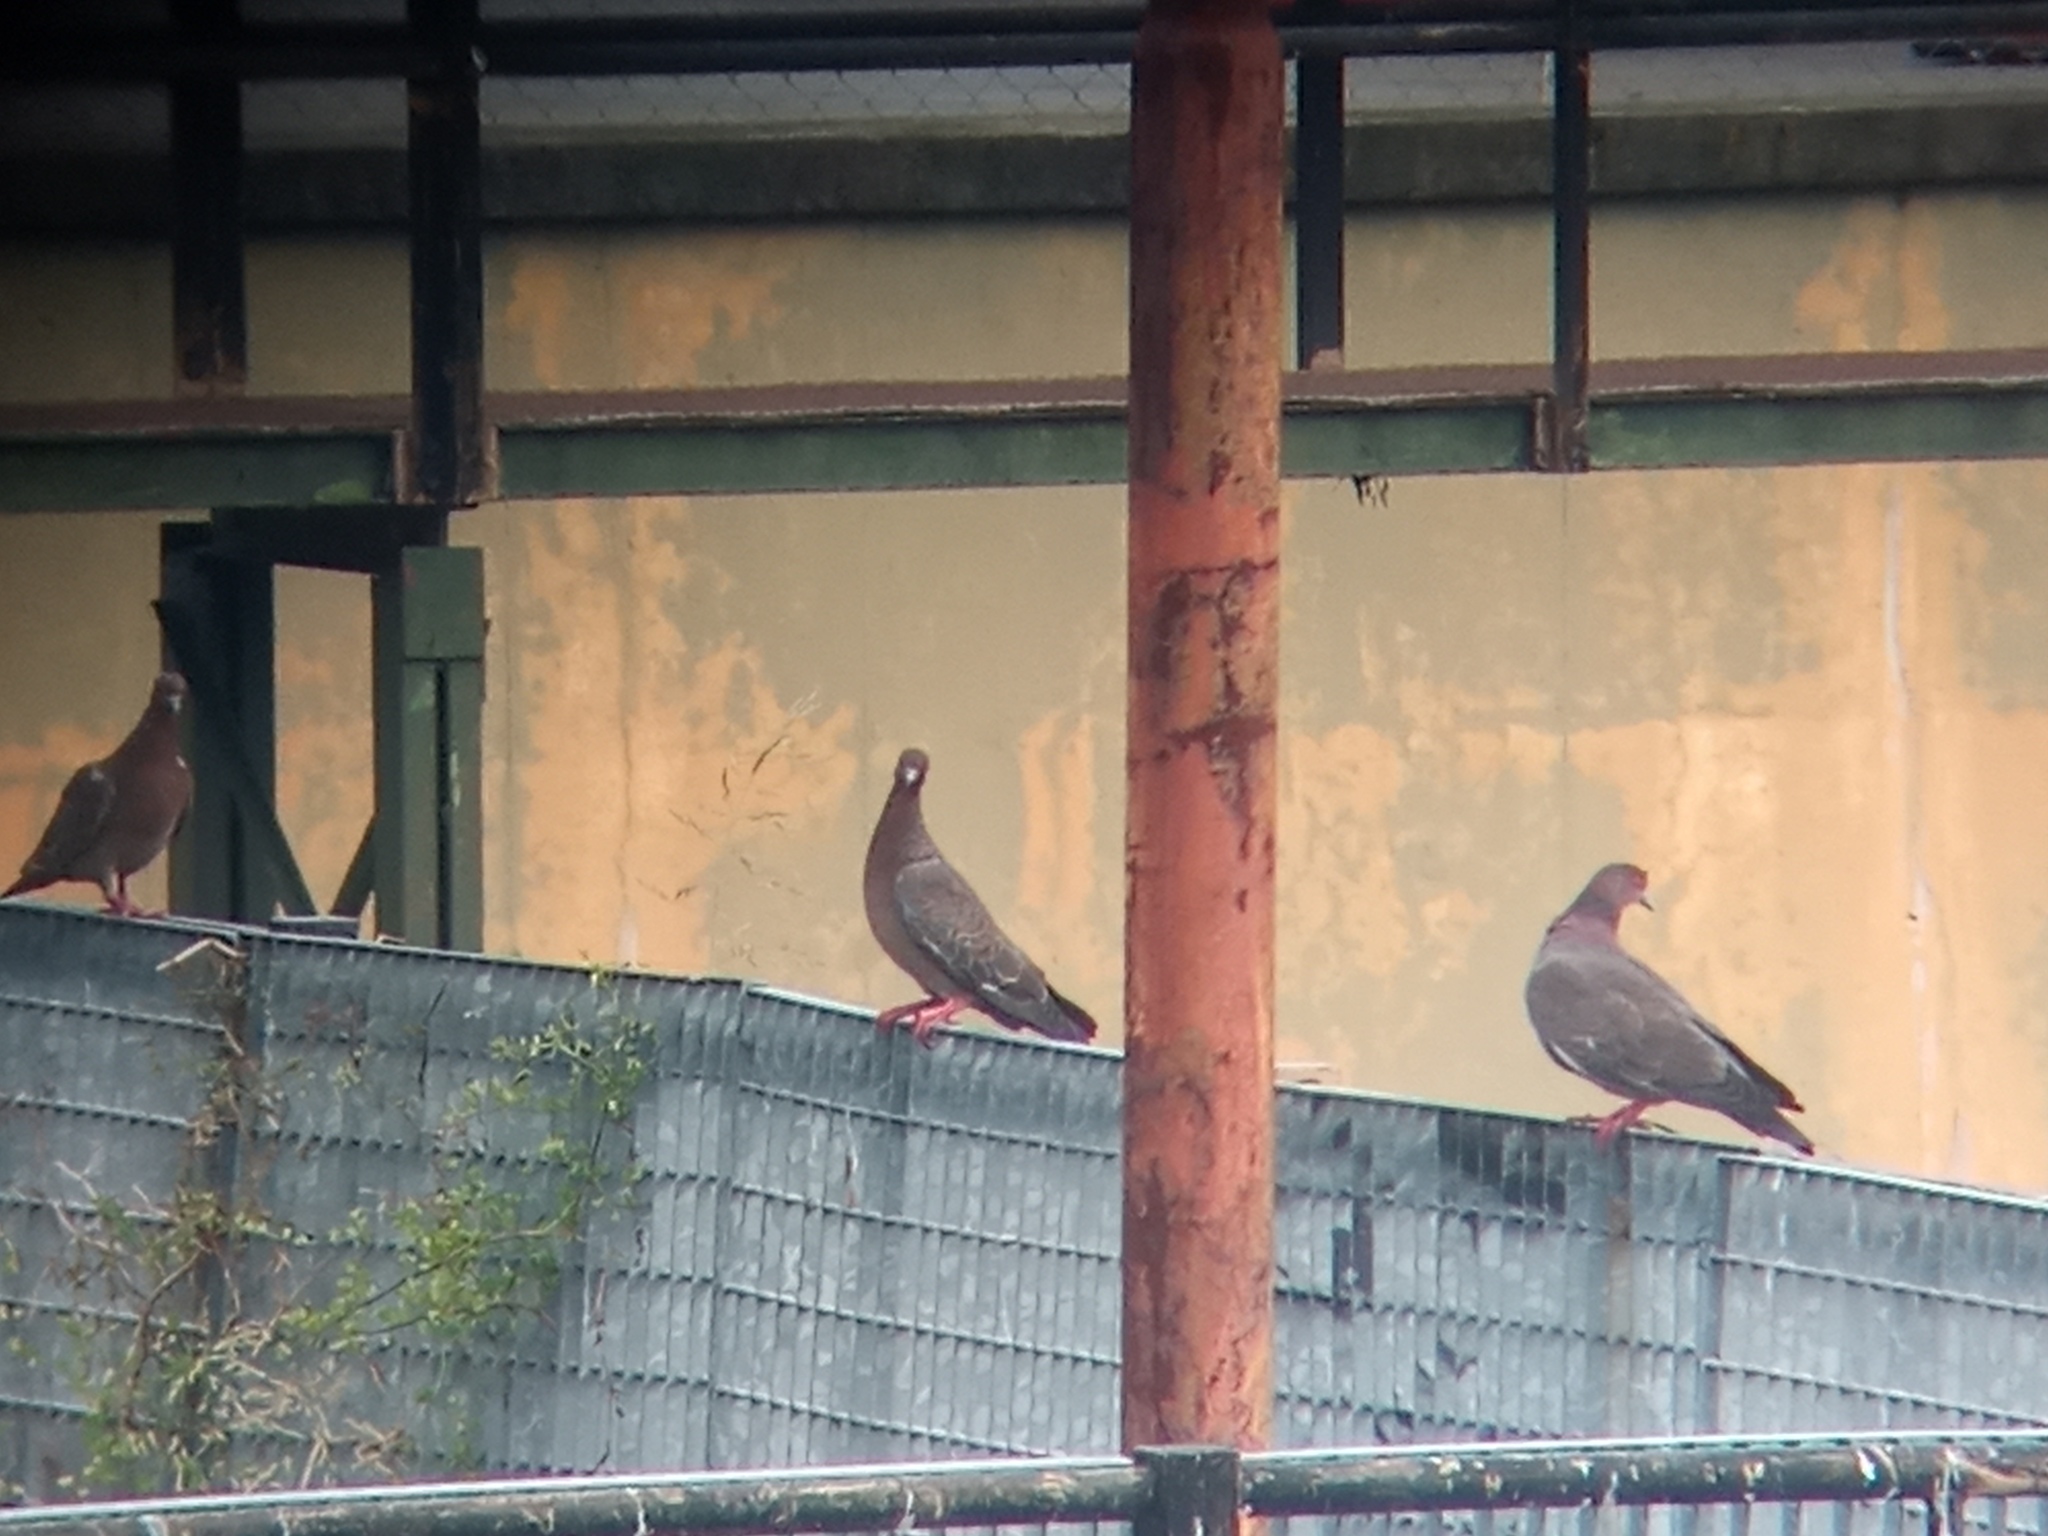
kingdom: Animalia
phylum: Chordata
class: Aves
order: Columbiformes
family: Columbidae
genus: Patagioenas
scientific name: Patagioenas picazuro
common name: Picazuro pigeon
